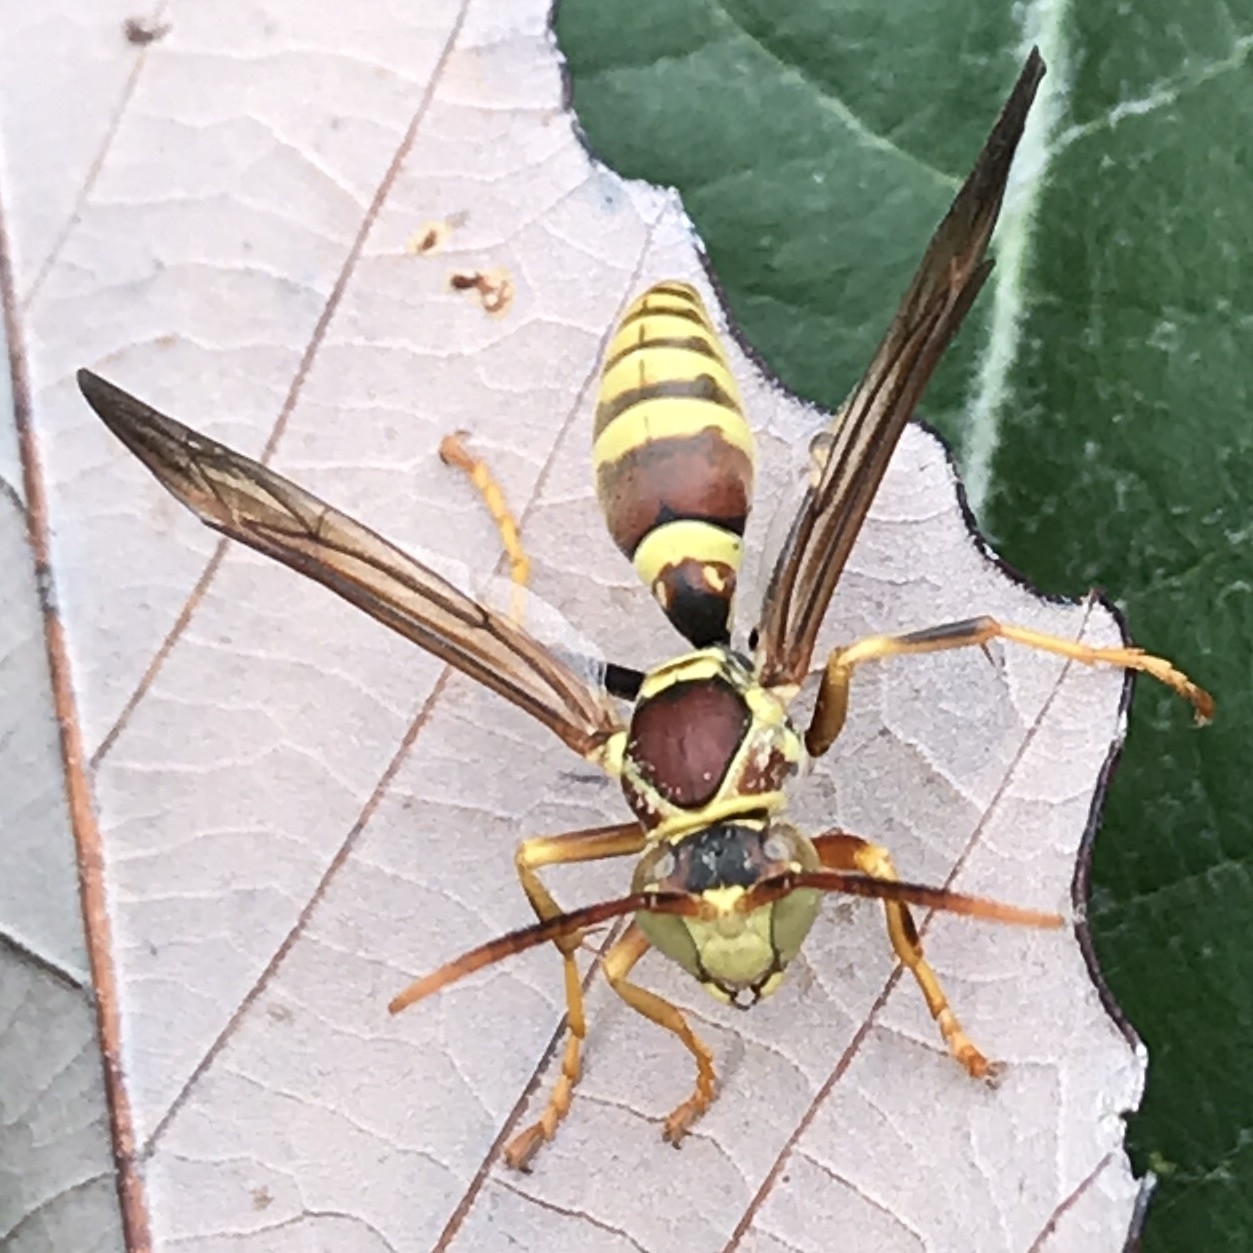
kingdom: Animalia
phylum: Arthropoda
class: Insecta
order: Hymenoptera
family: Eumenidae
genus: Polistes
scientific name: Polistes exclamans
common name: Paper wasp
